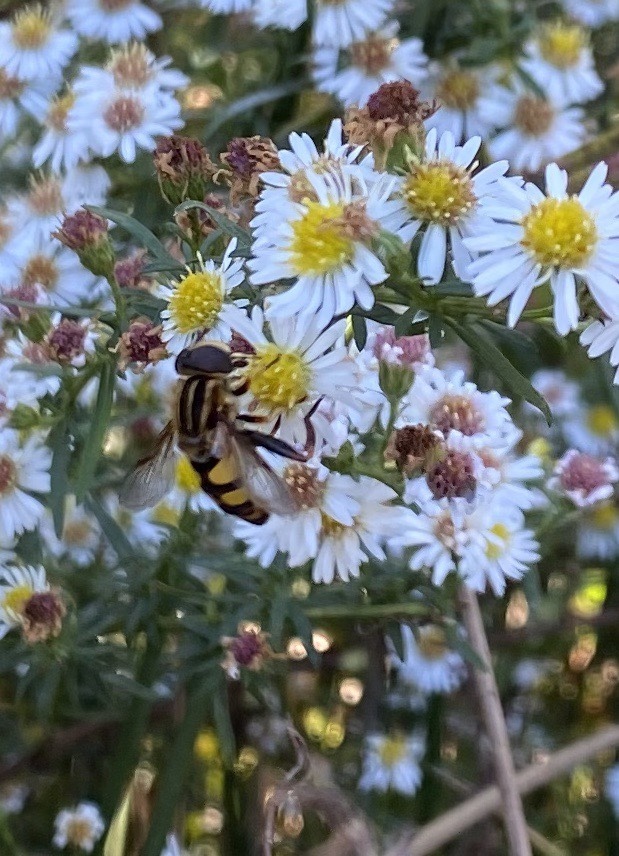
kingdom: Animalia
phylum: Arthropoda
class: Insecta
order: Diptera
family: Syrphidae
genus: Helophilus
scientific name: Helophilus fasciatus
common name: Narrow-headed marsh fly
